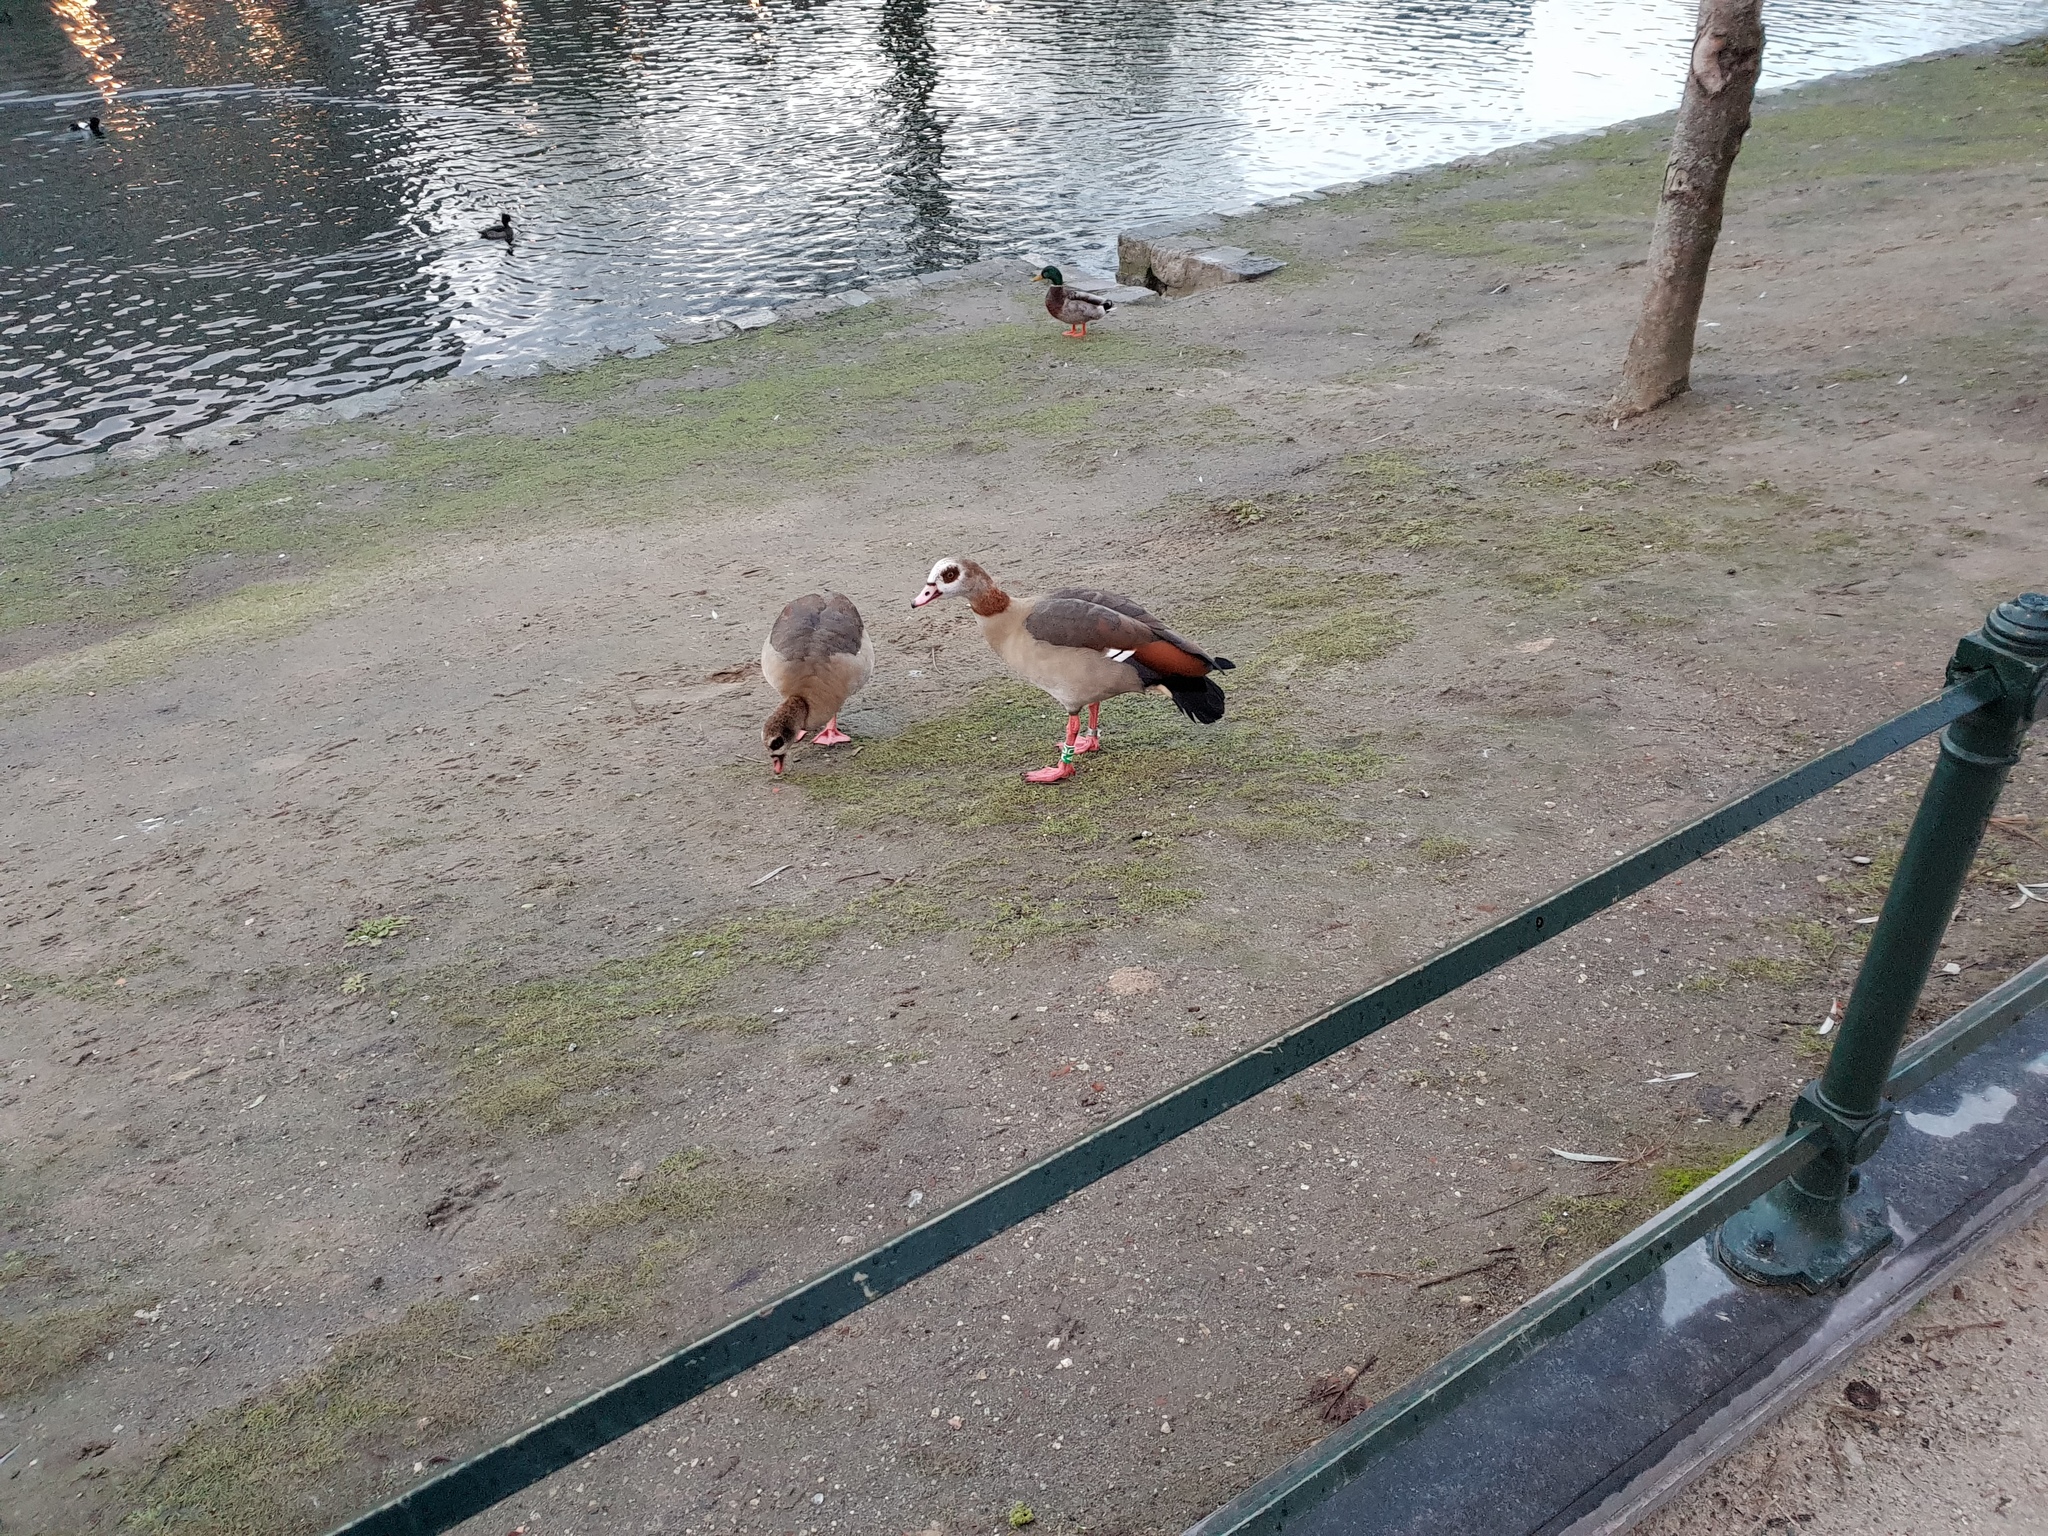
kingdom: Animalia
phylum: Chordata
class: Aves
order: Anseriformes
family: Anatidae
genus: Alopochen
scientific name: Alopochen aegyptiaca
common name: Egyptian goose
